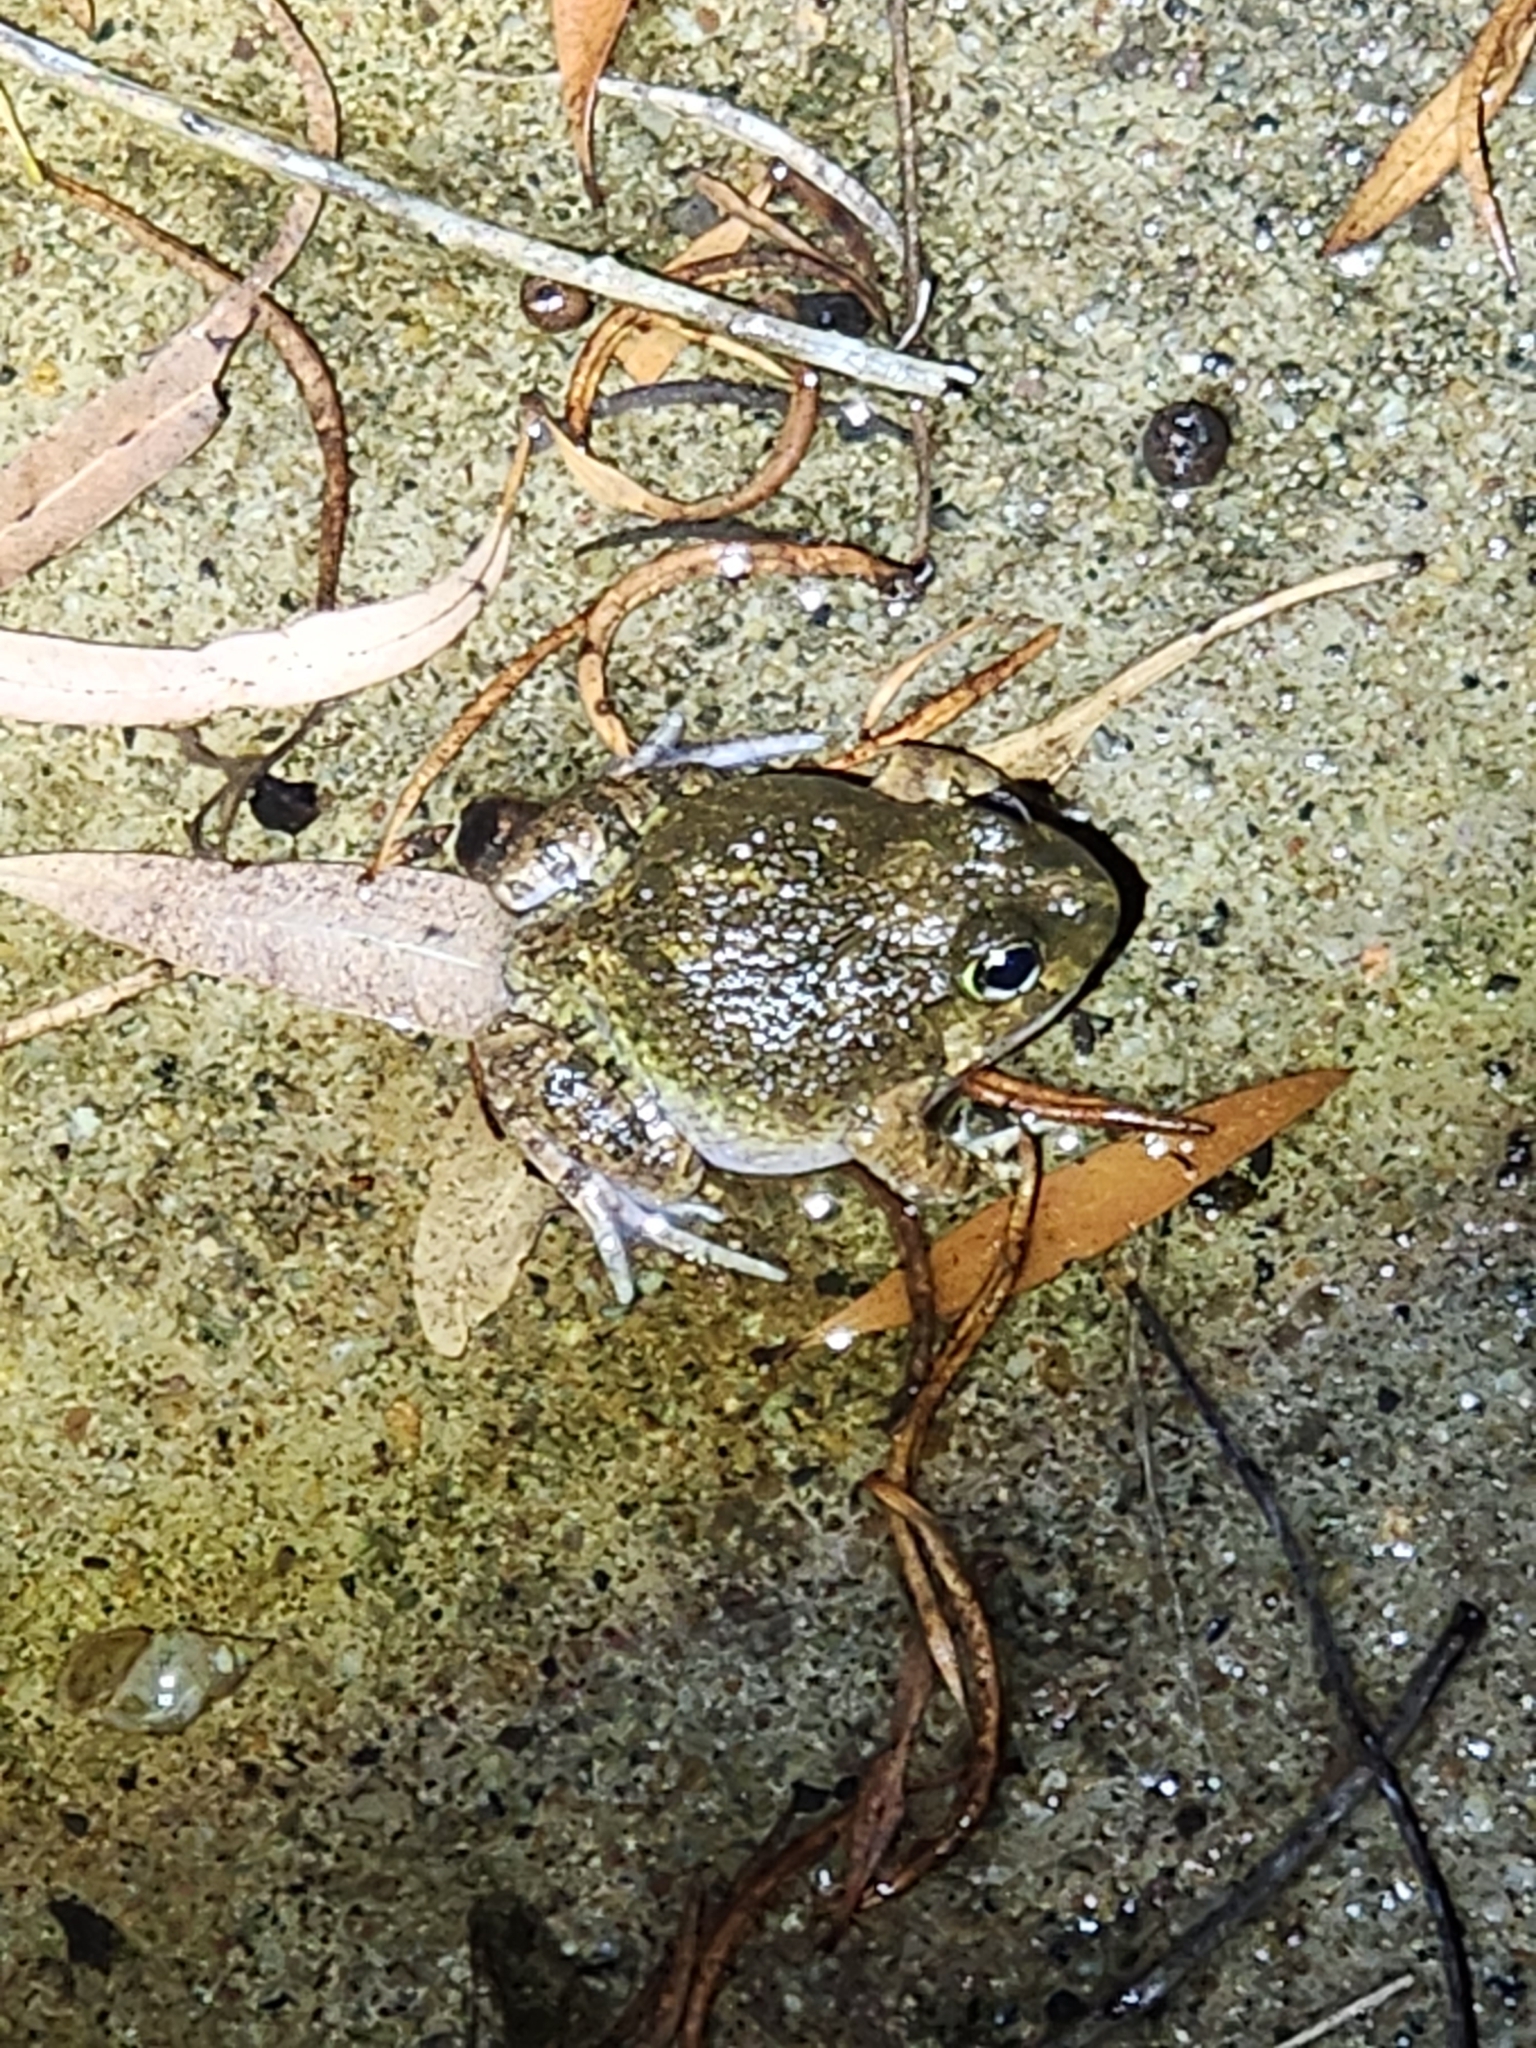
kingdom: Animalia
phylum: Chordata
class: Amphibia
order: Anura
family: Limnodynastidae
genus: Platyplectrum
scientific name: Platyplectrum ornatum
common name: Ornate burrowing frog
